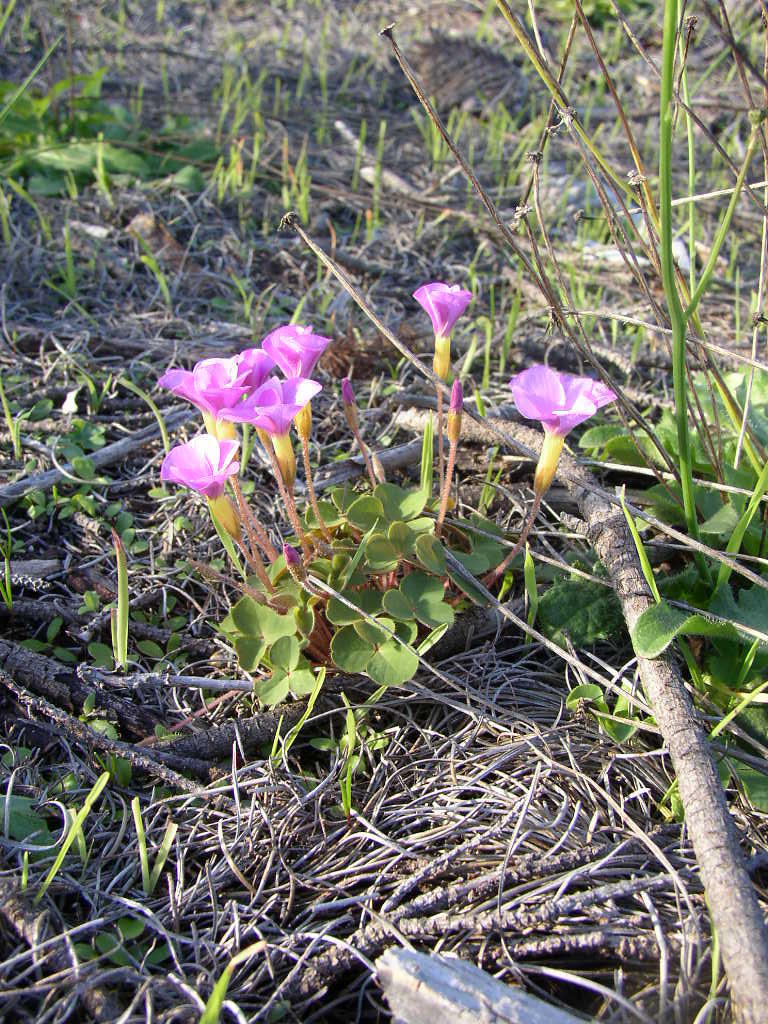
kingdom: Plantae
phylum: Tracheophyta
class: Magnoliopsida
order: Oxalidales
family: Oxalidaceae
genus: Oxalis
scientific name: Oxalis purpurea
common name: Purple woodsorrel
